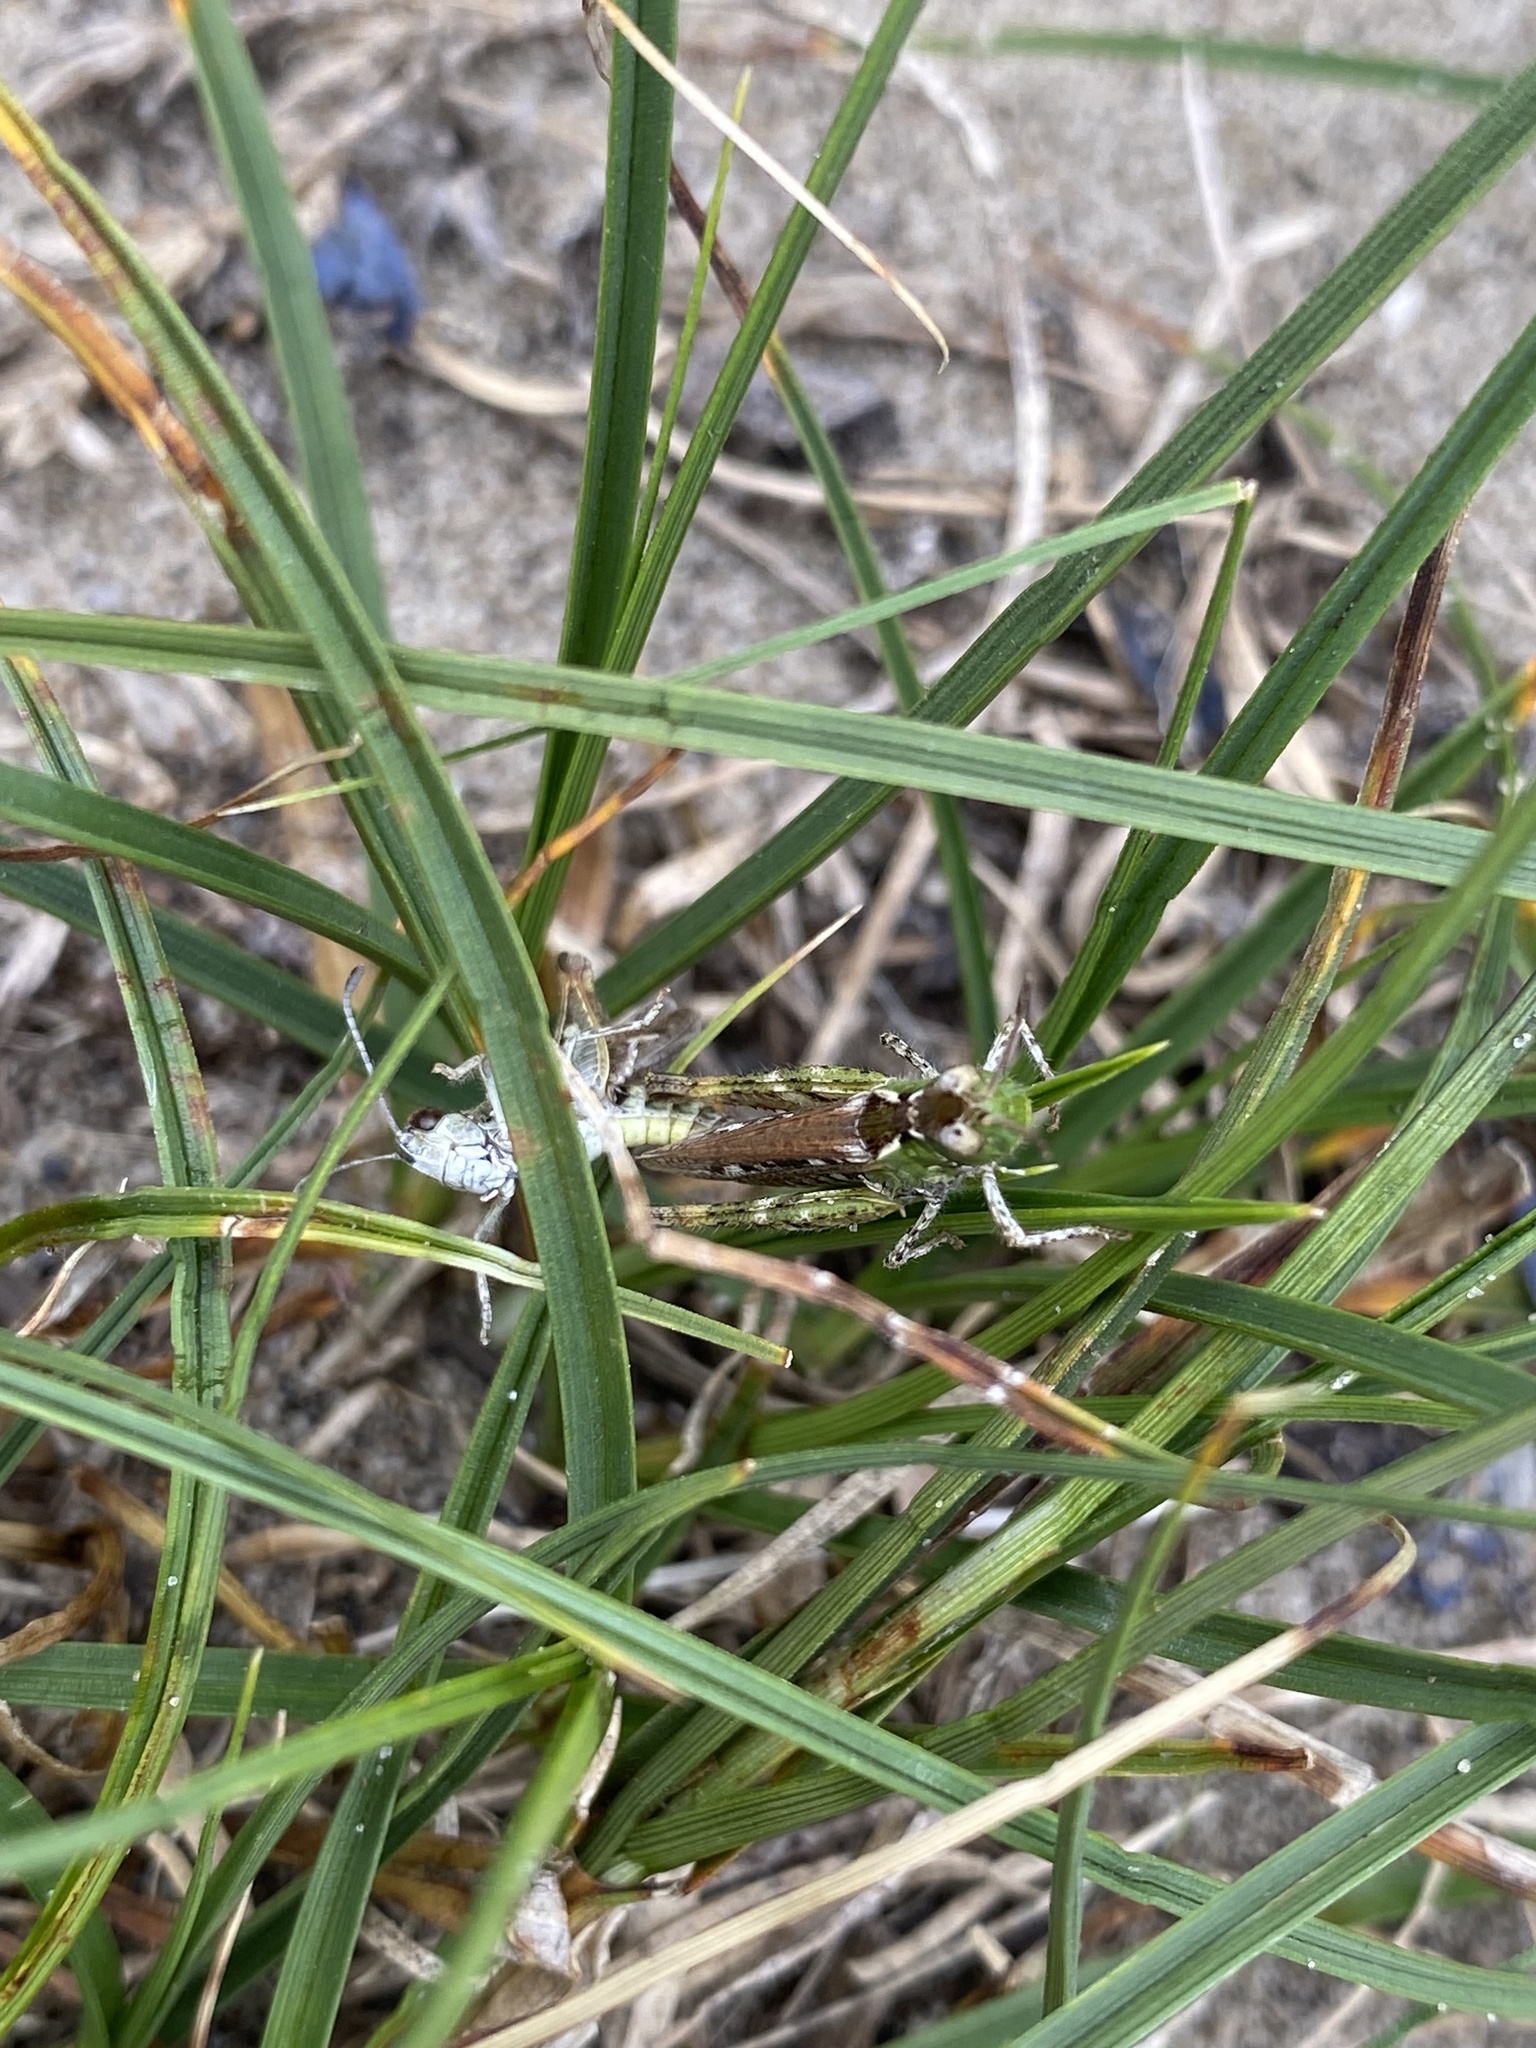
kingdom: Animalia
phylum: Arthropoda
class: Insecta
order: Orthoptera
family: Acrididae
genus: Myrmeleotettix
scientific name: Myrmeleotettix maculatus
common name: Mottled grasshopper
